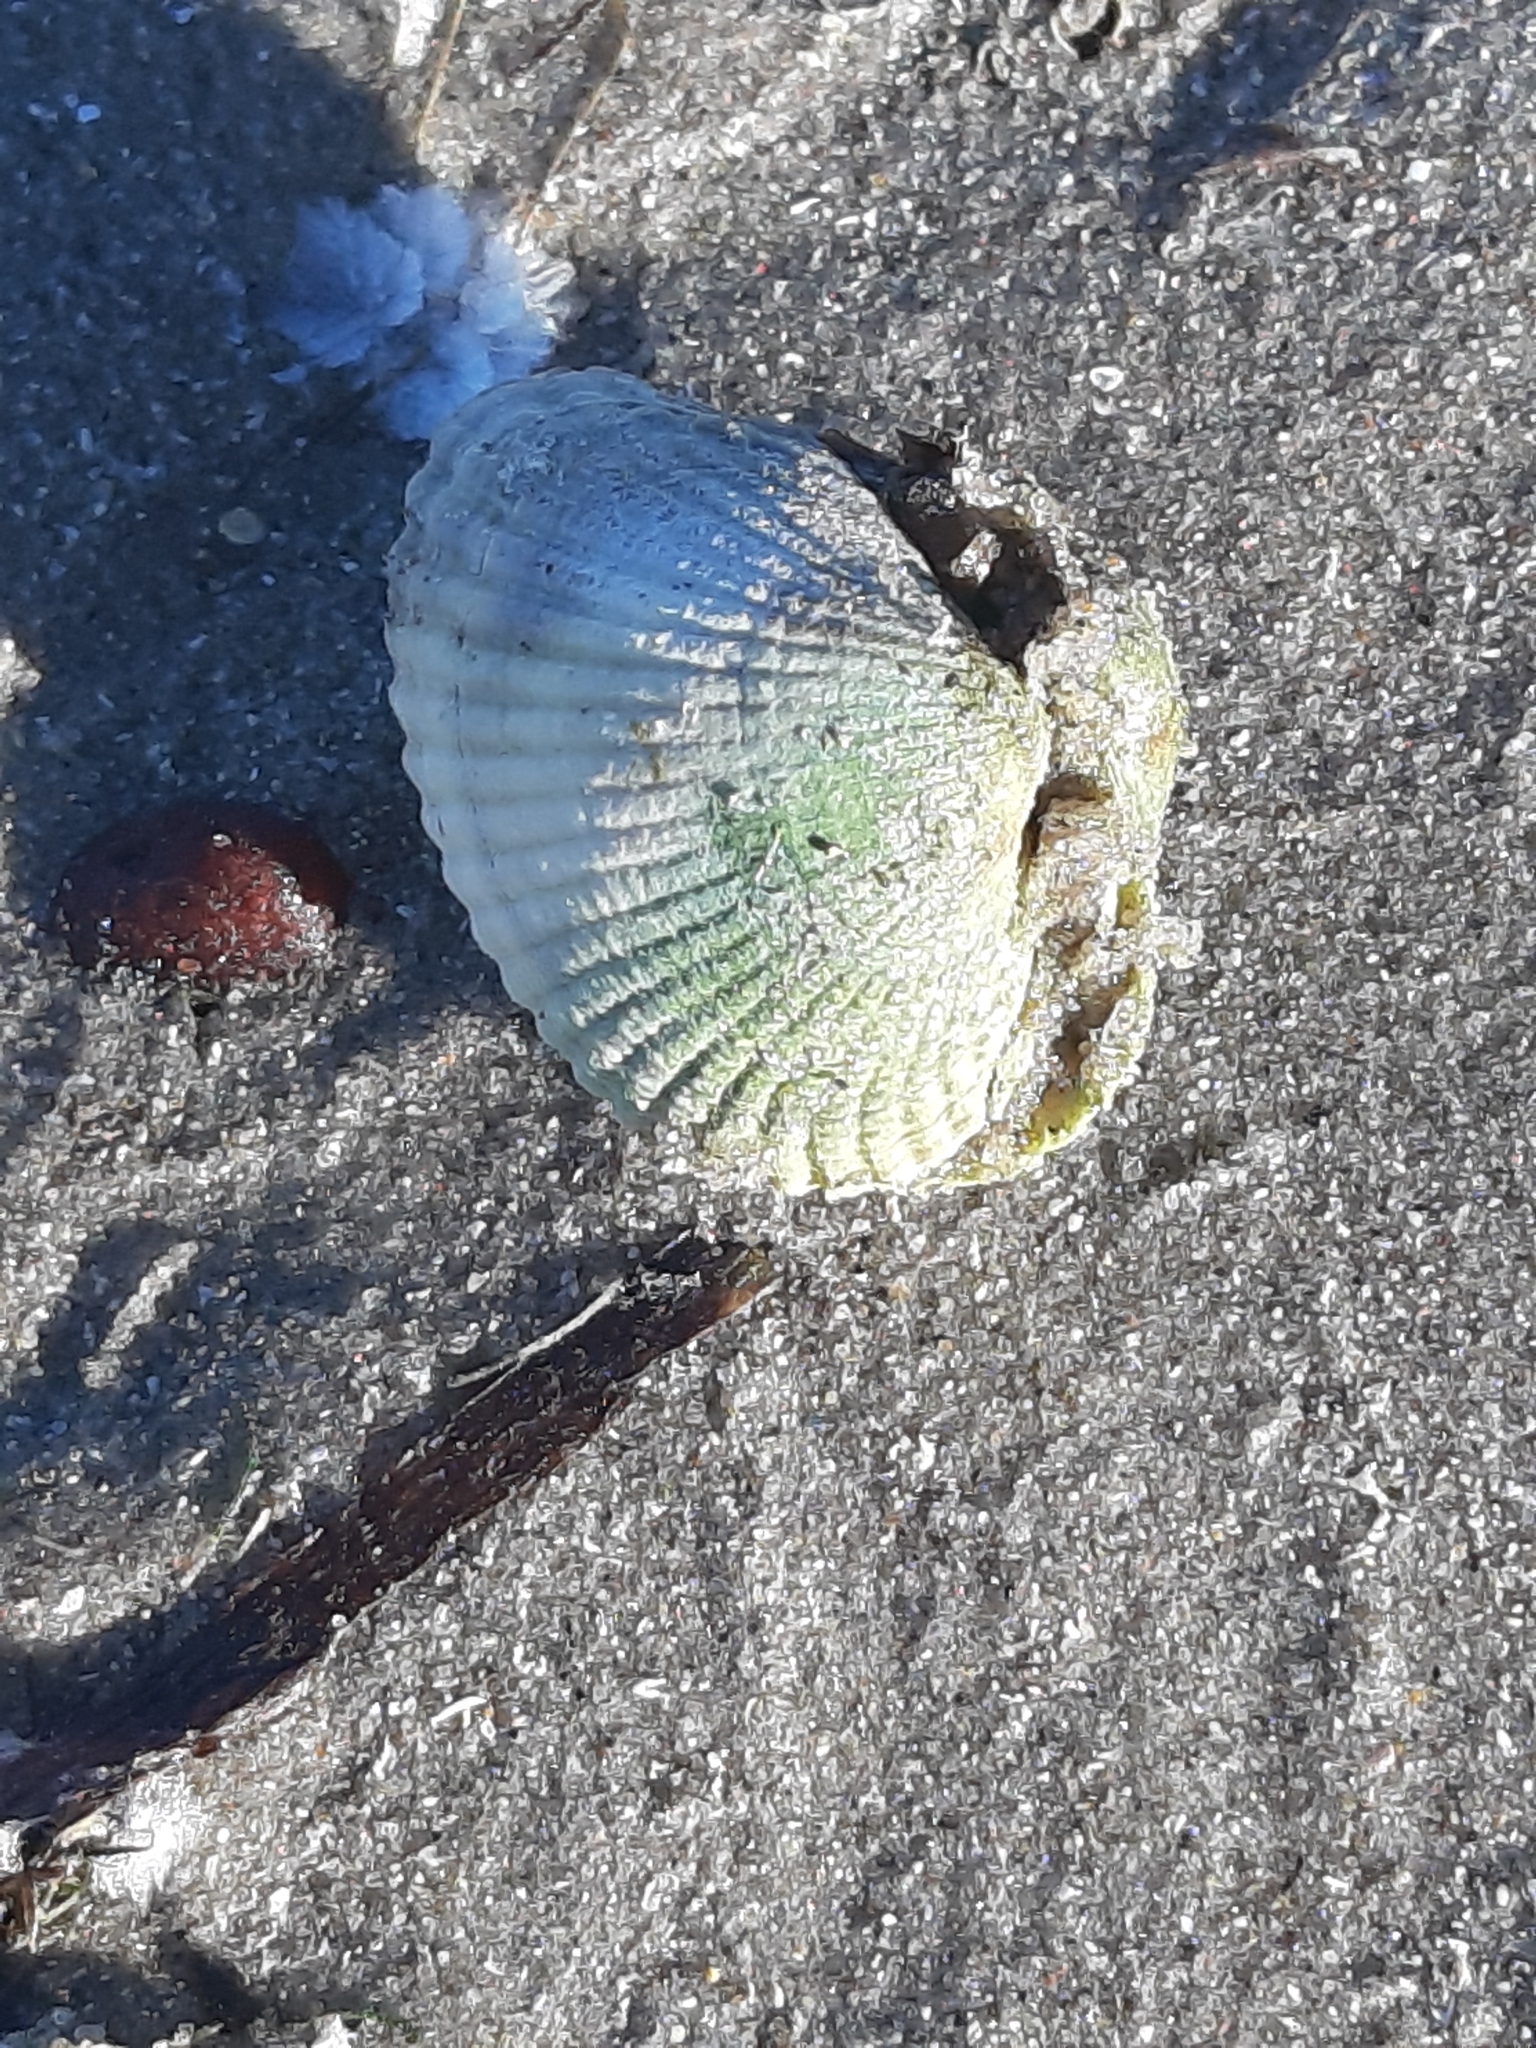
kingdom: Animalia
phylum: Mollusca
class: Bivalvia
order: Cardiida
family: Cardiidae
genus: Cerastoderma
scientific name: Cerastoderma edule
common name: Common cockle
